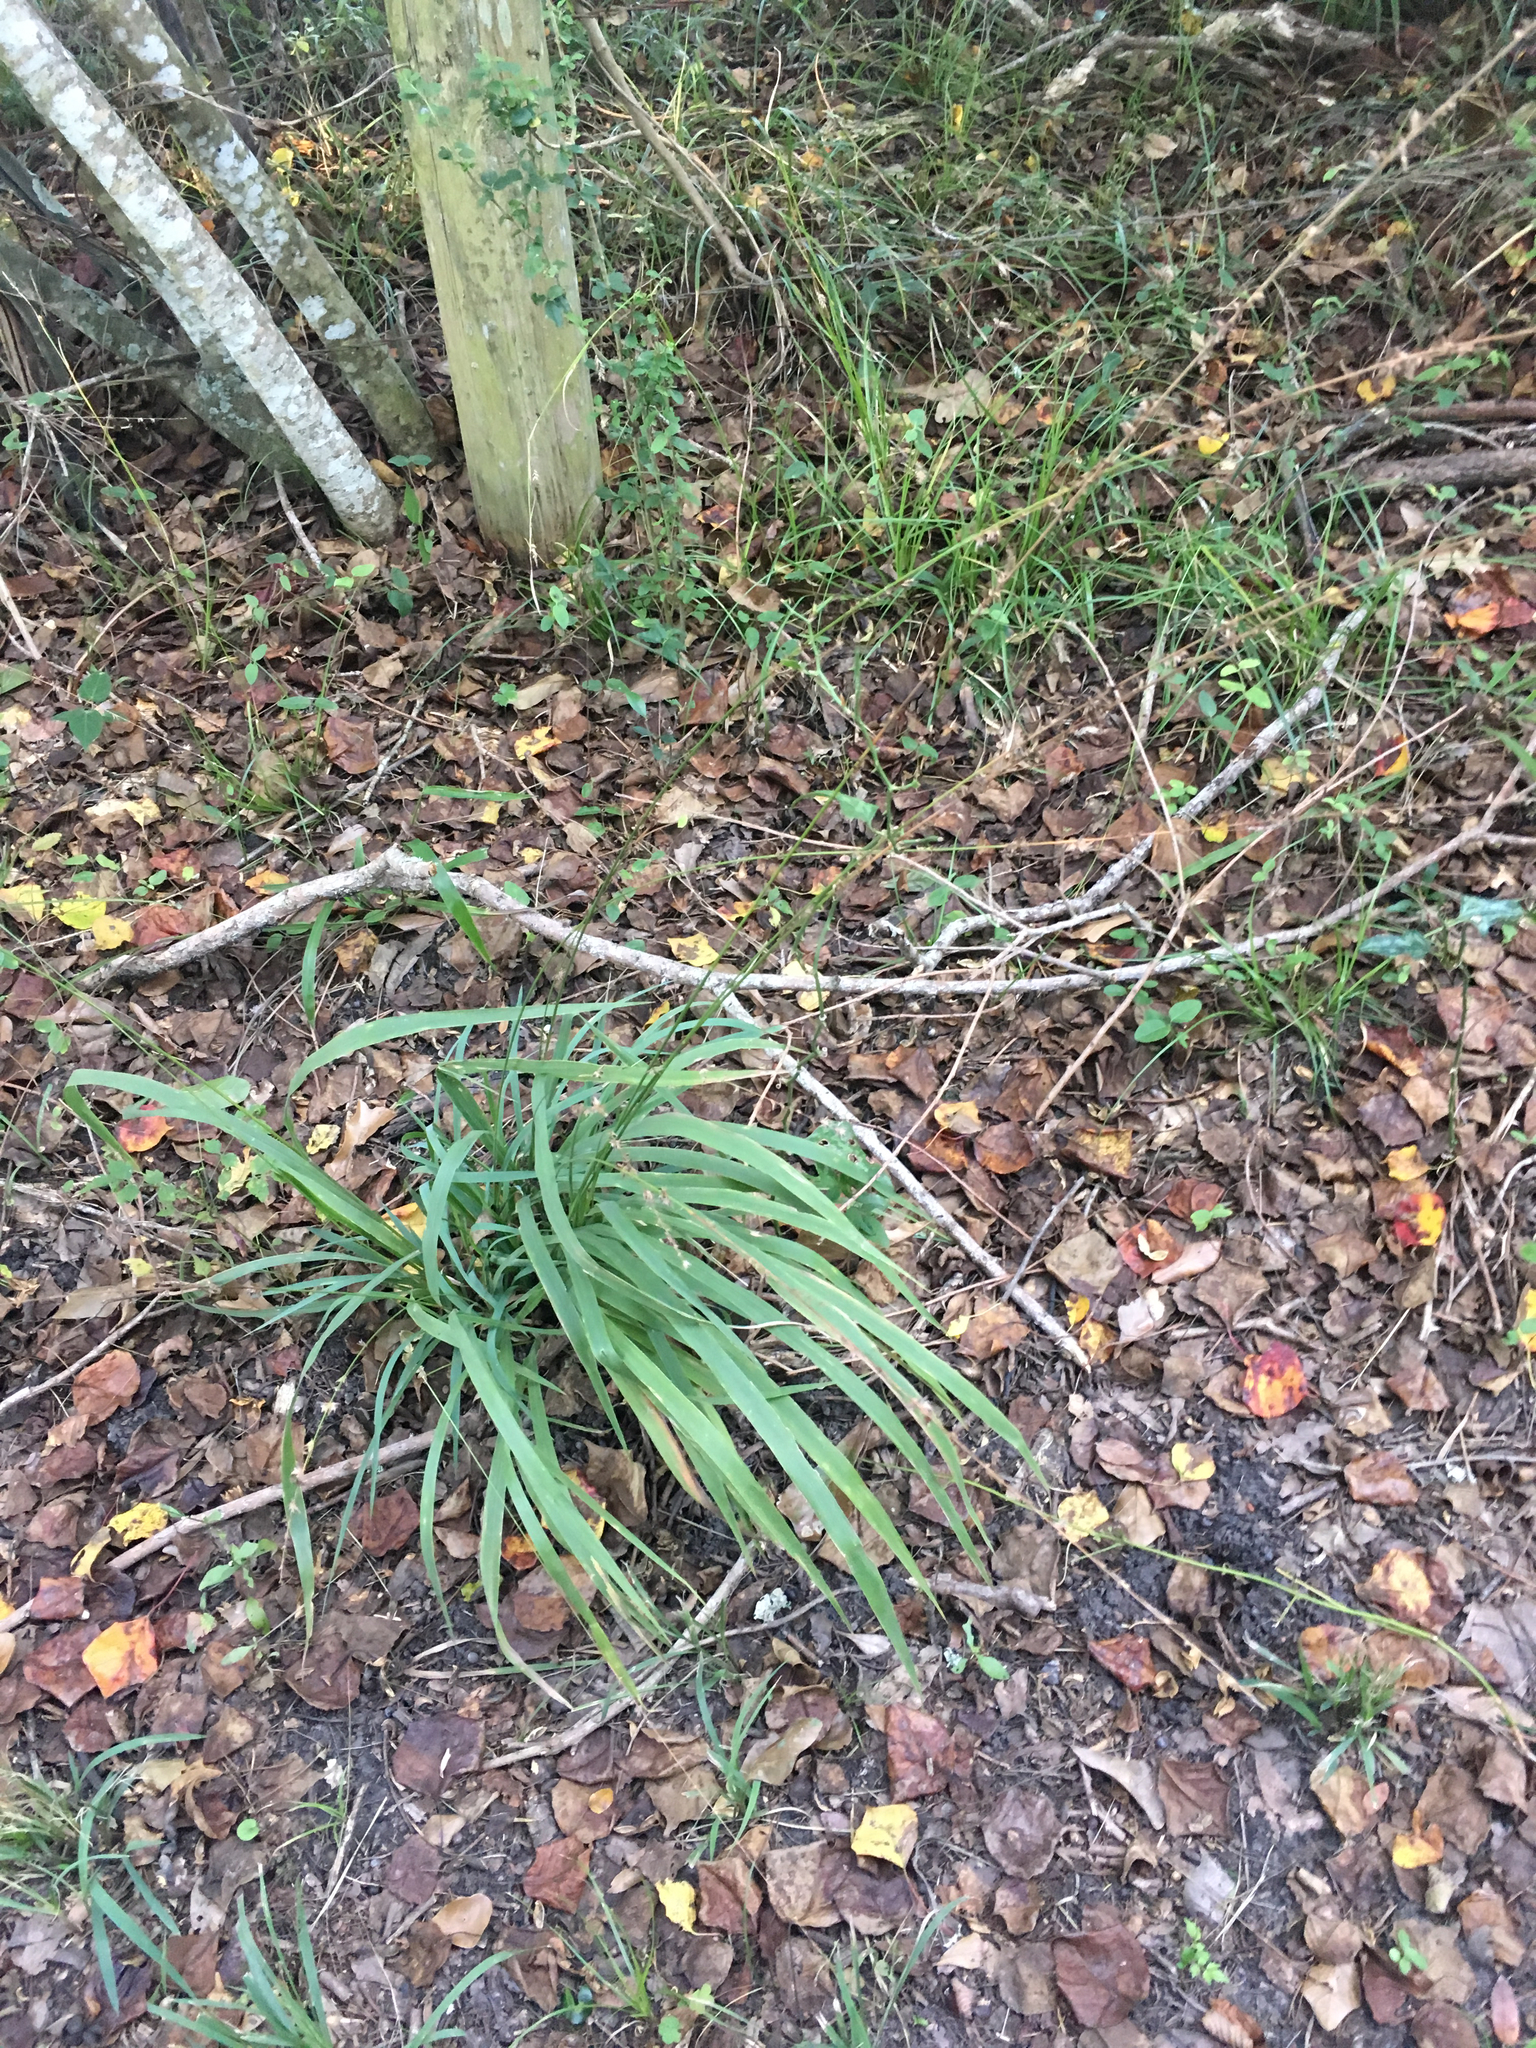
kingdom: Plantae
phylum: Tracheophyta
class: Liliopsida
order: Poales
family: Poaceae
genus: Chasmanthium
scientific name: Chasmanthium laxum
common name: Slender chasmanthium
